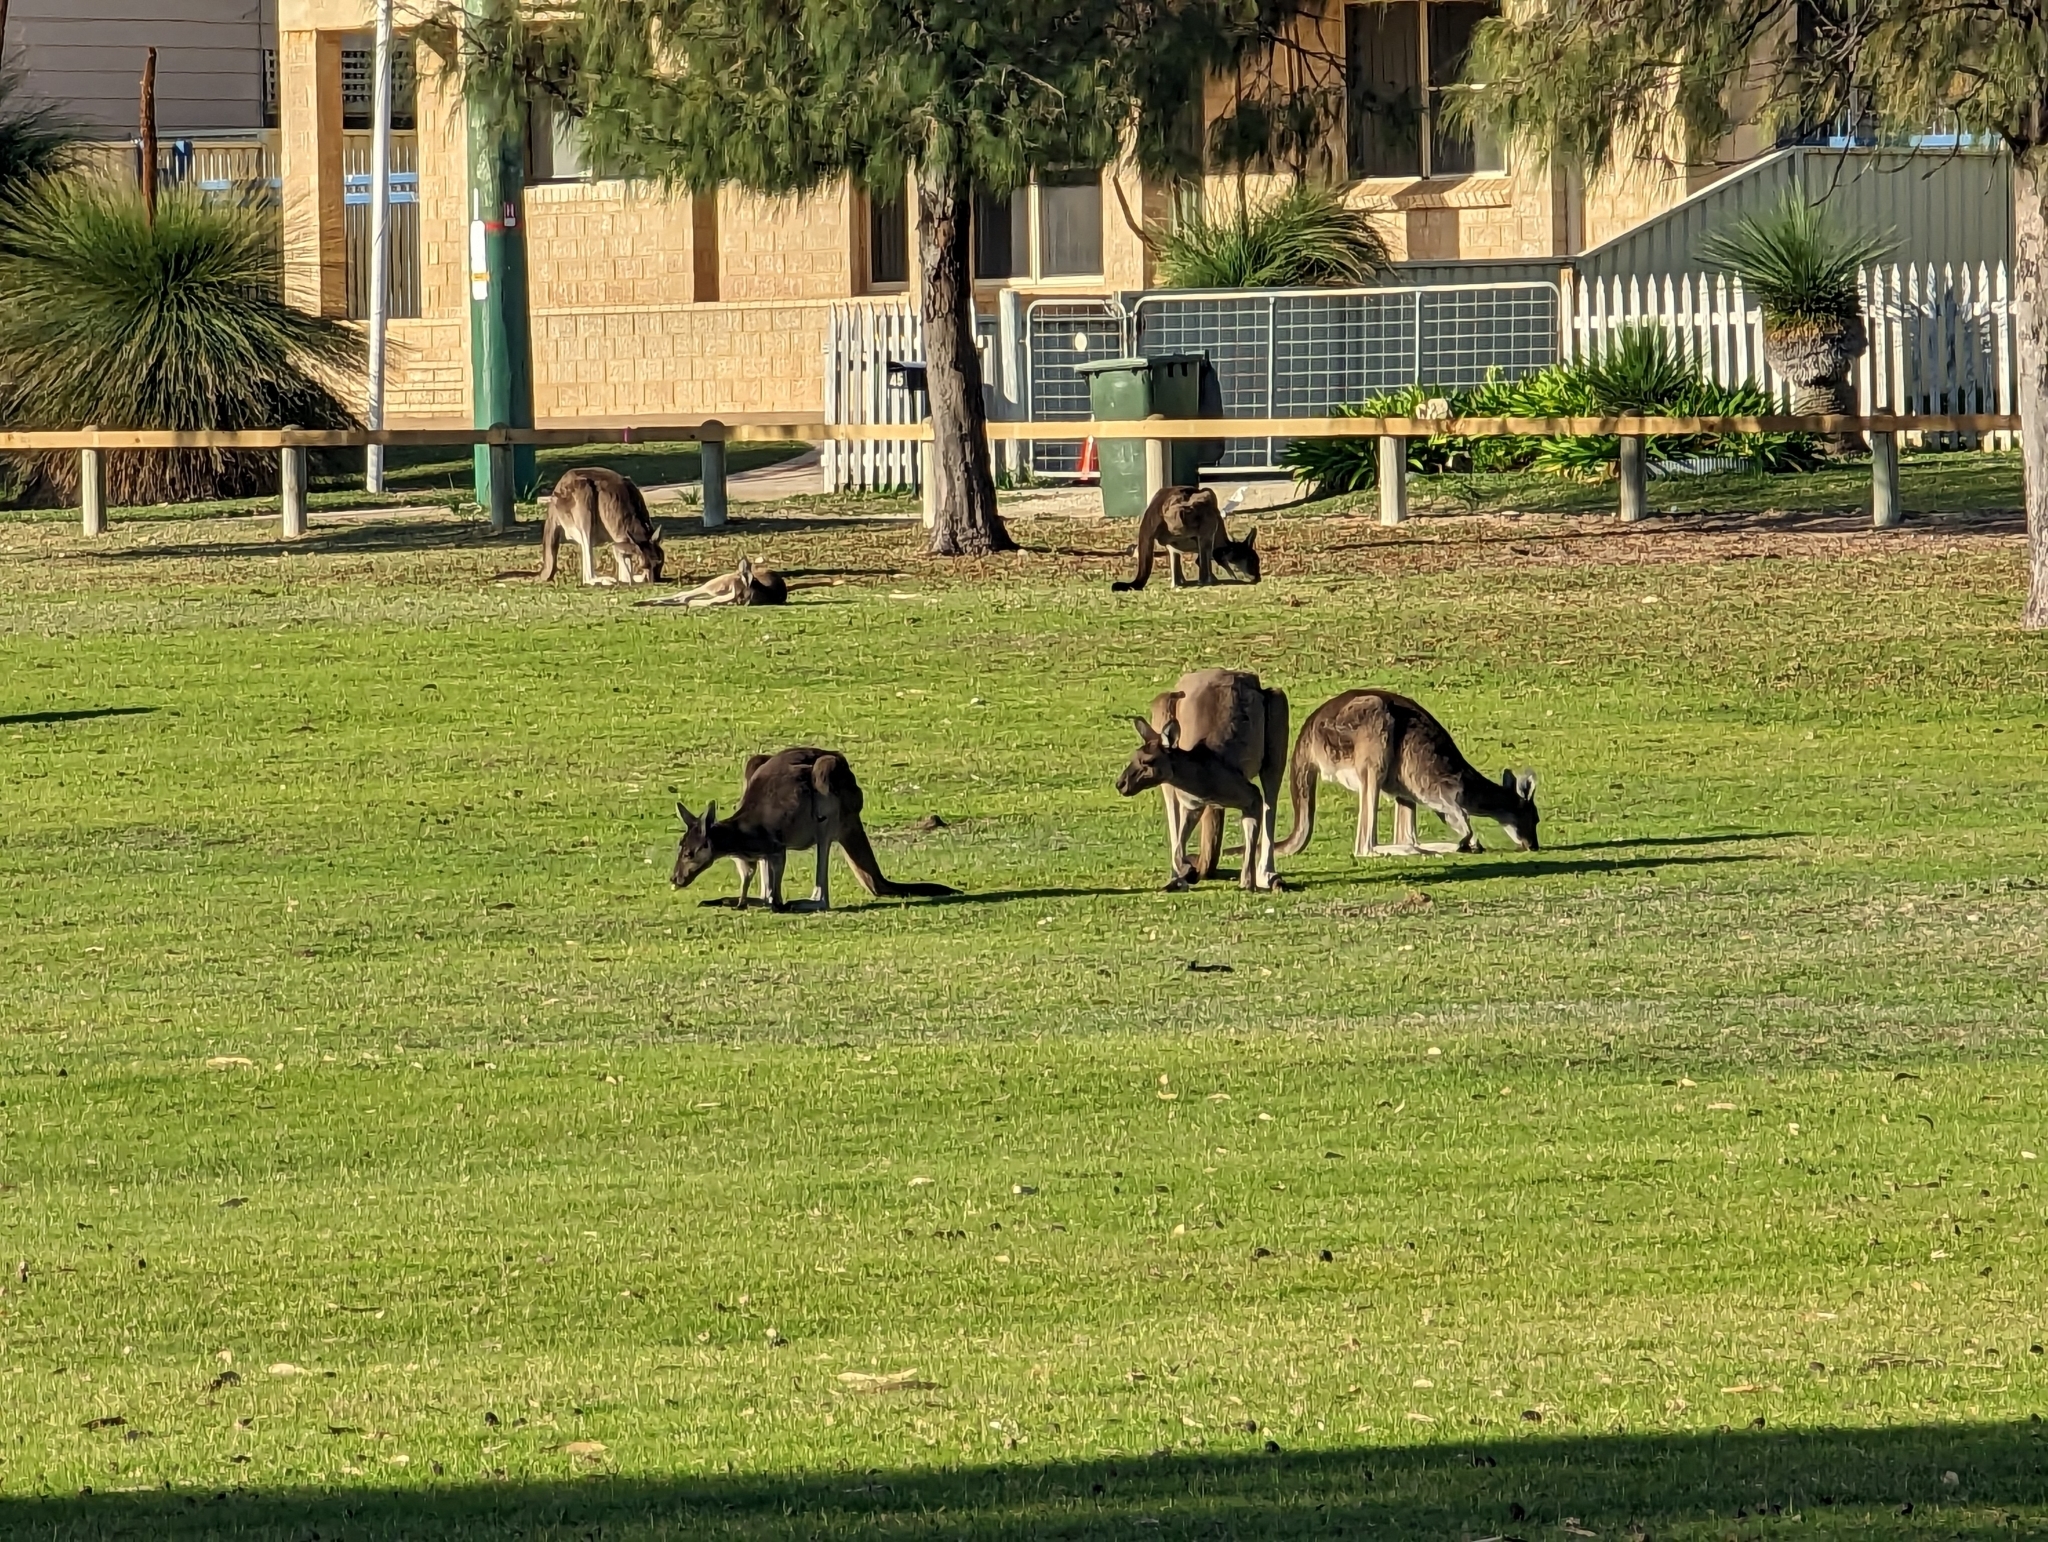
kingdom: Animalia
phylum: Chordata
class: Mammalia
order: Diprotodontia
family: Macropodidae
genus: Macropus
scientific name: Macropus fuliginosus
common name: Western grey kangaroo
